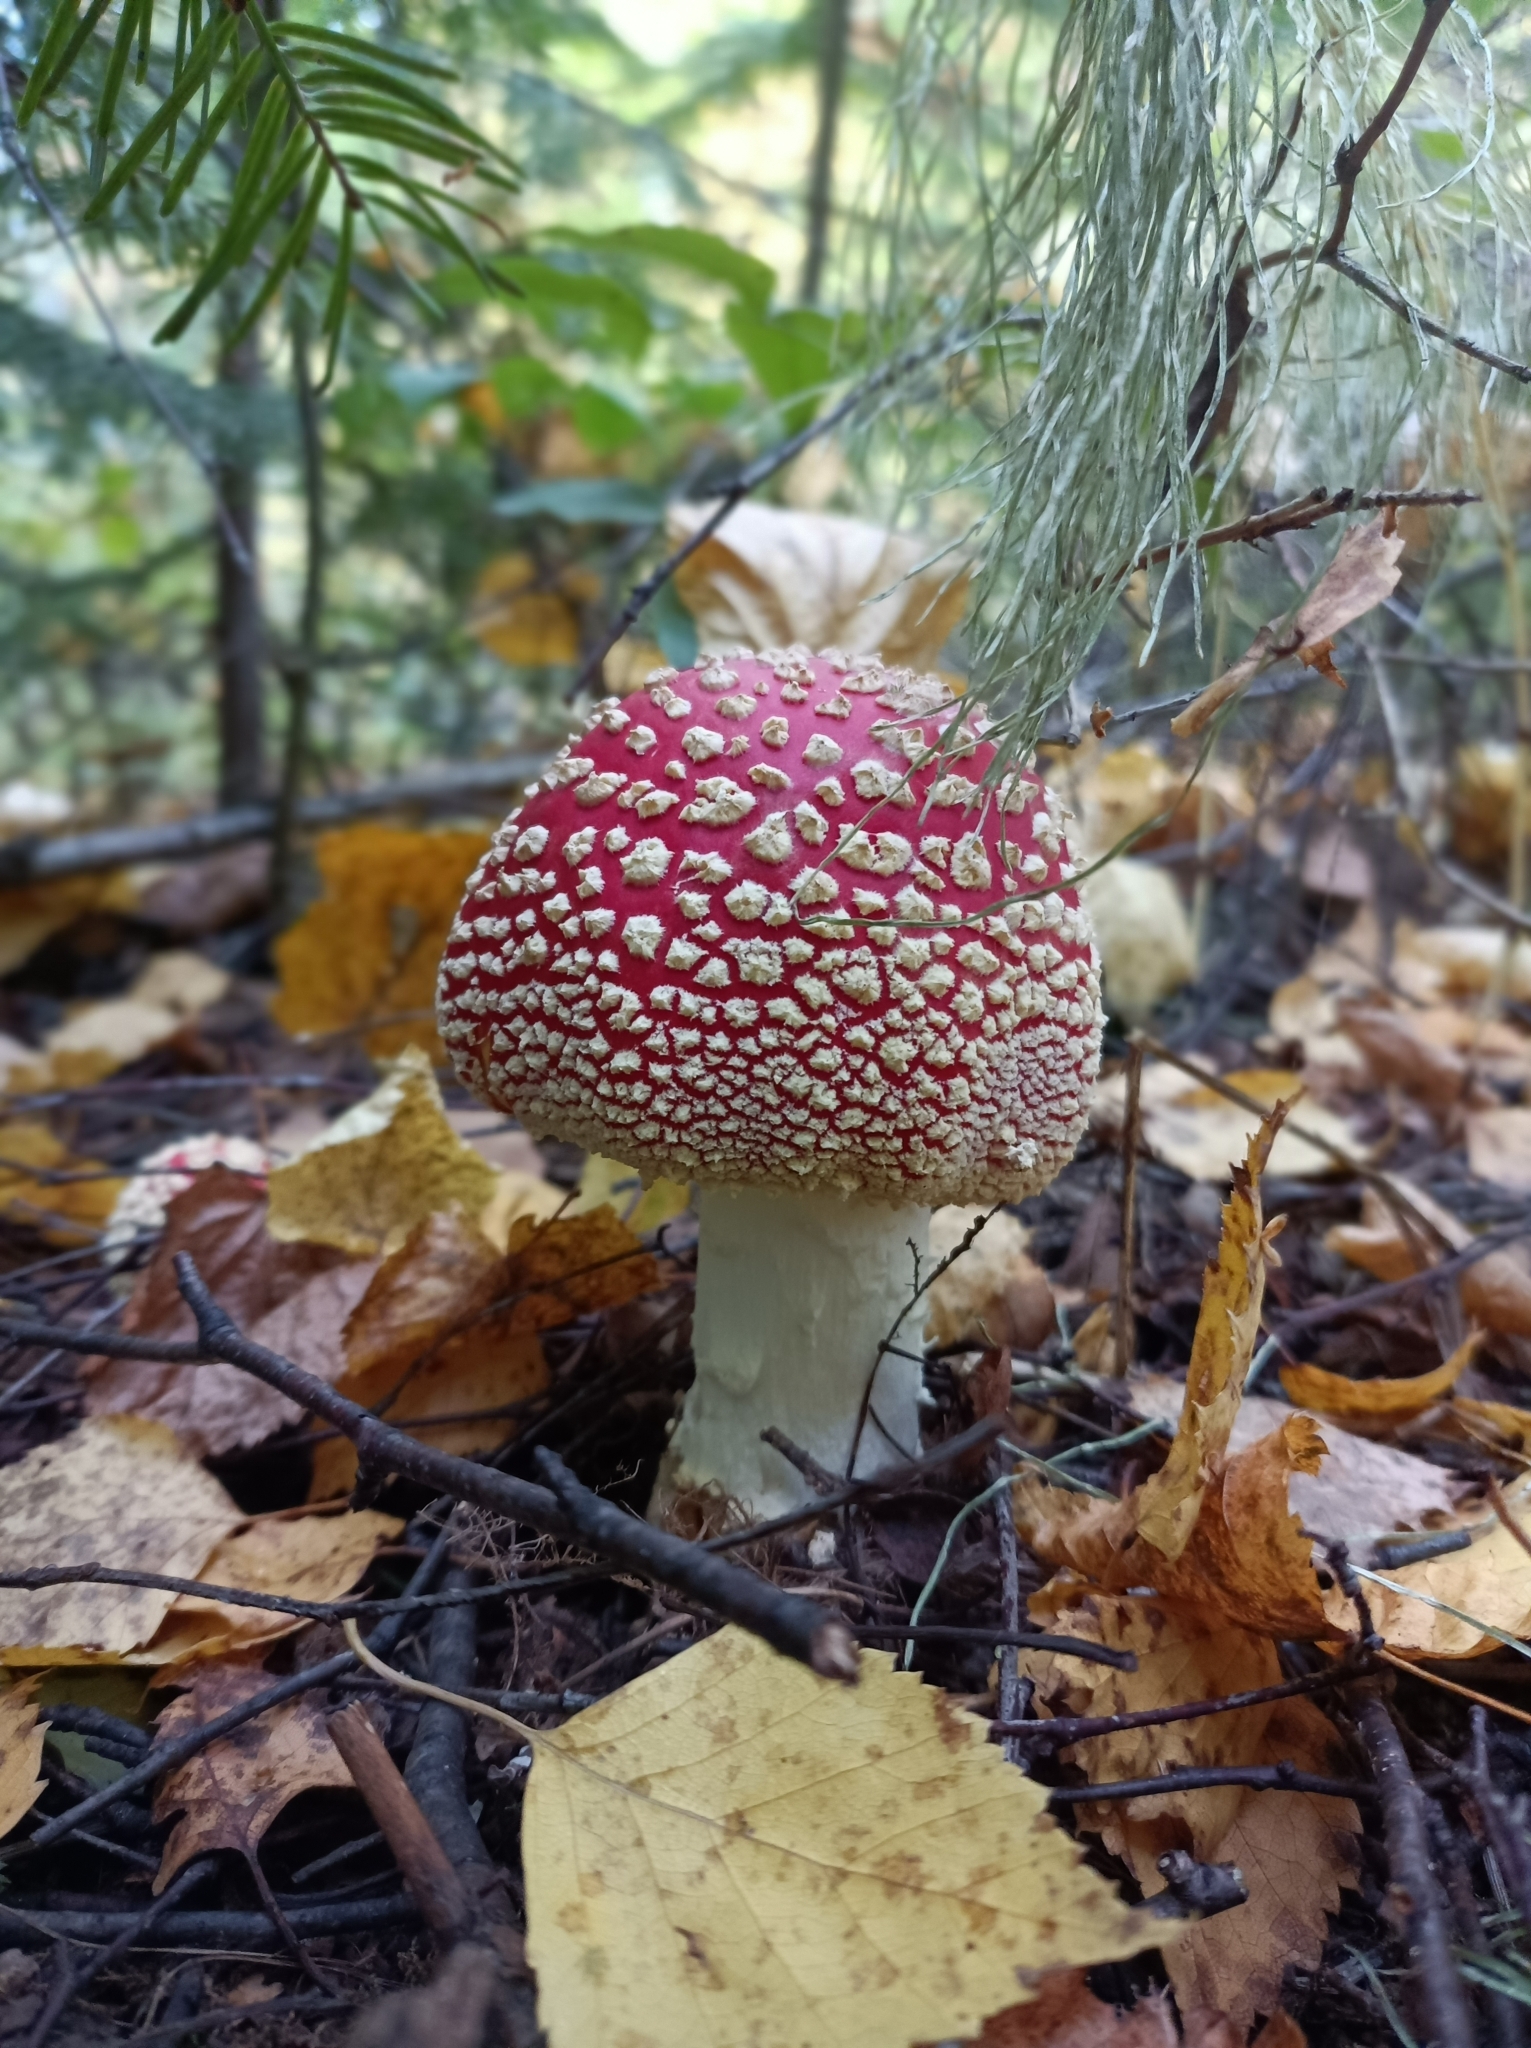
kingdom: Fungi
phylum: Basidiomycota
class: Agaricomycetes
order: Agaricales
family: Amanitaceae
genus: Amanita
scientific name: Amanita muscaria
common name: Fly agaric
